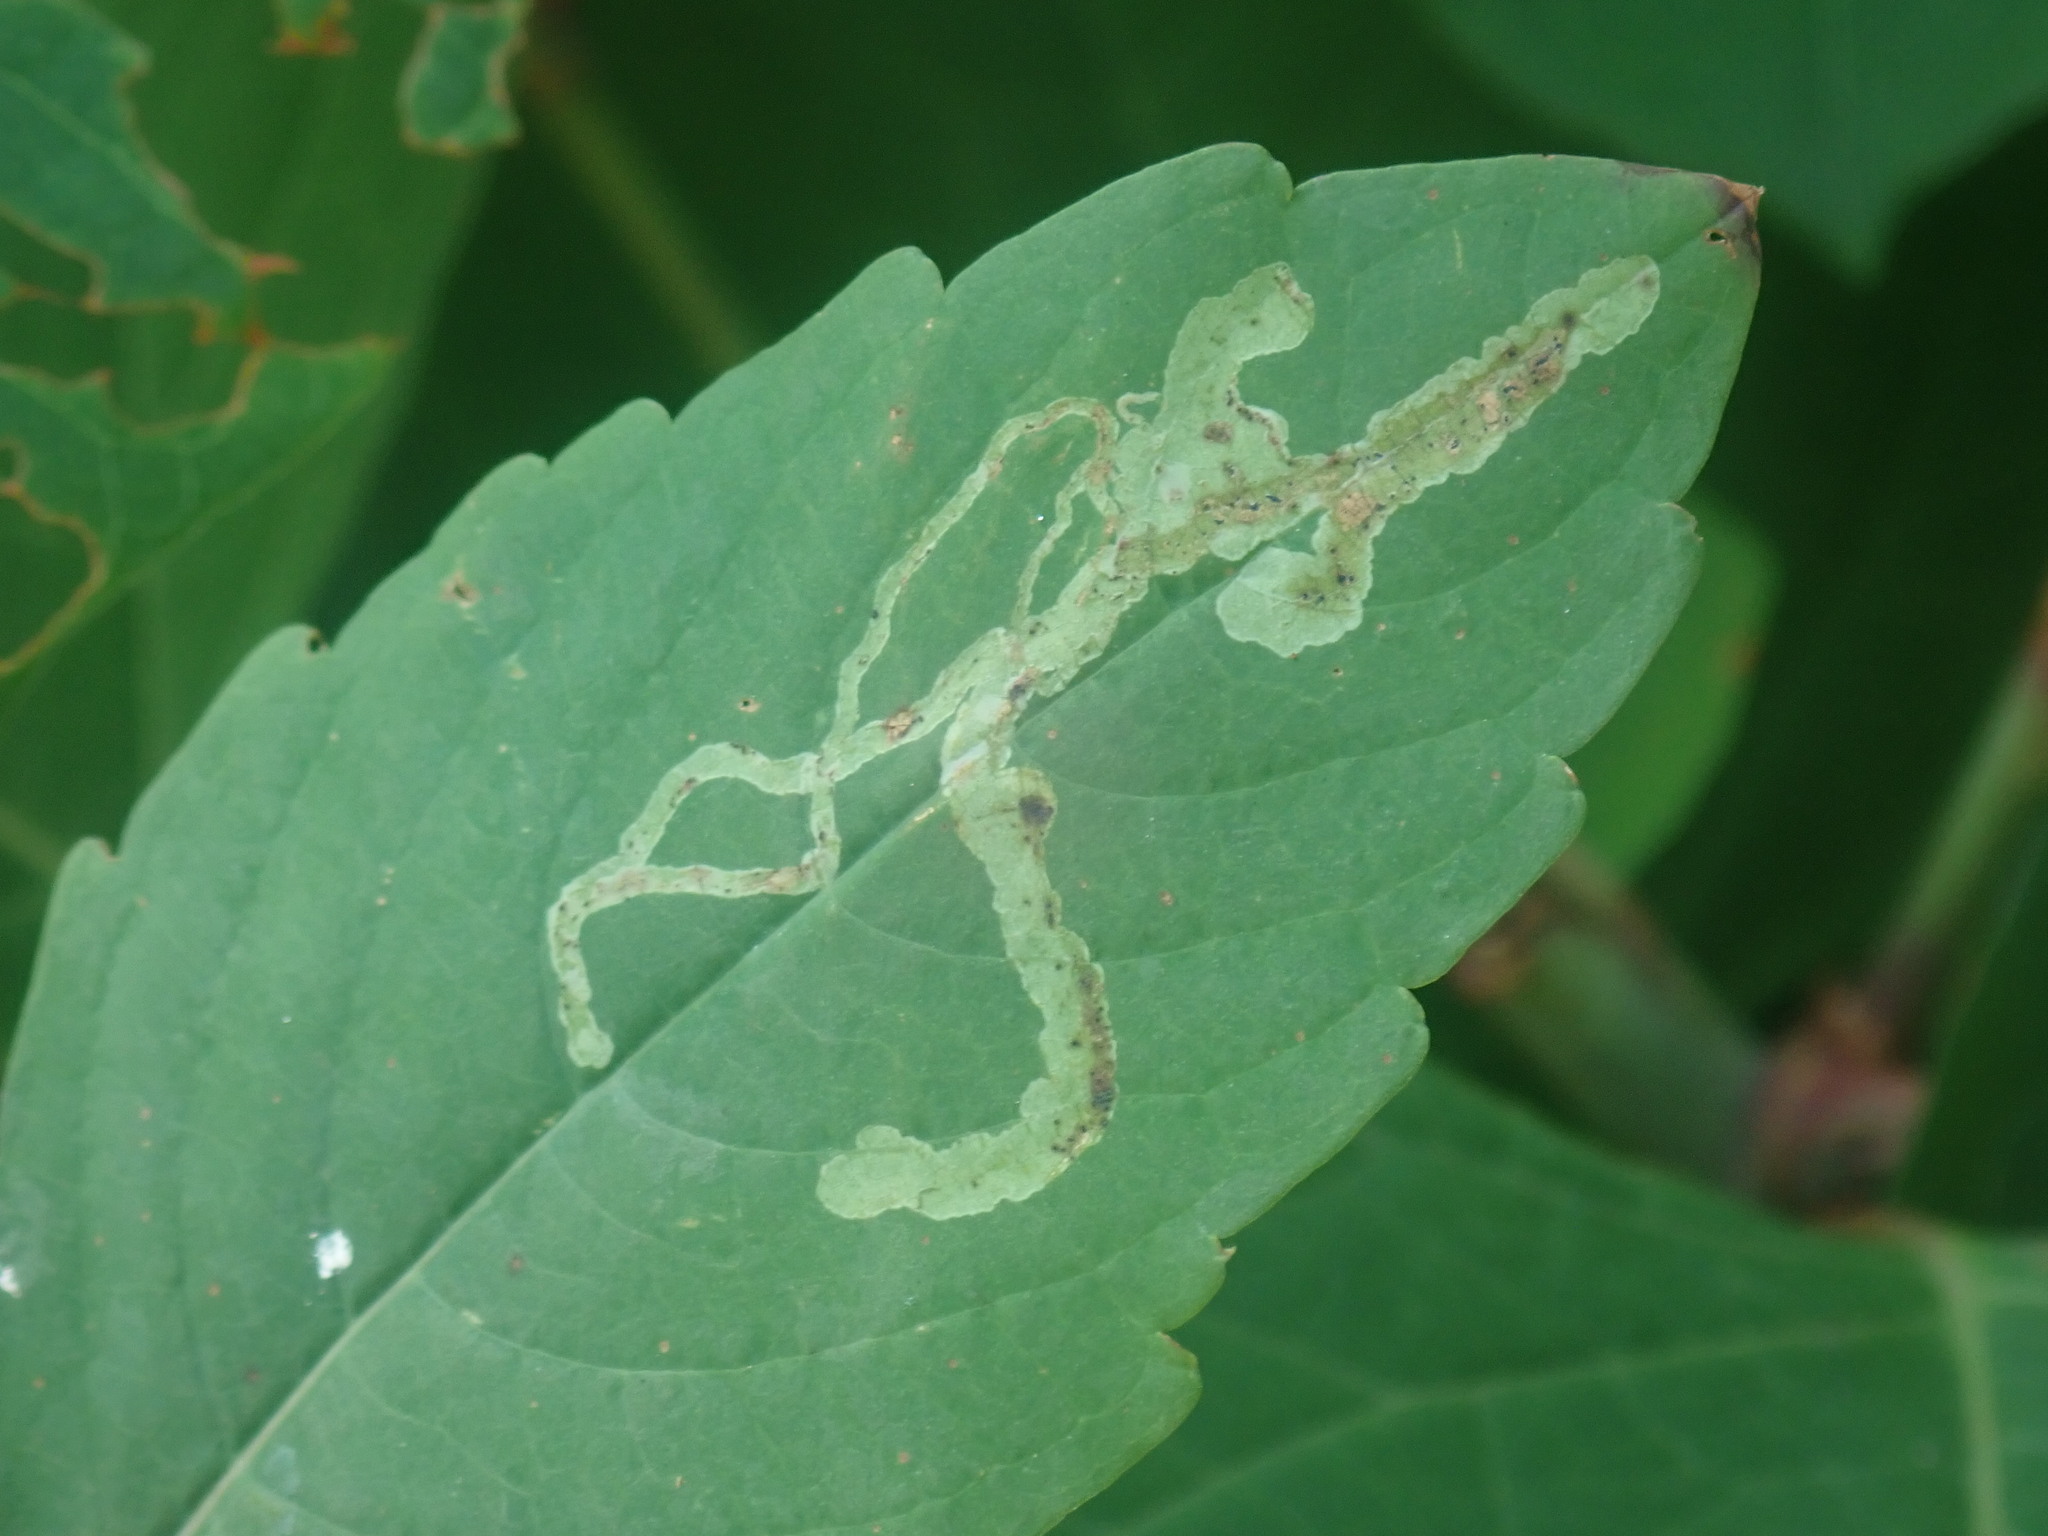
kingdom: Animalia
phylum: Arthropoda
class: Insecta
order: Diptera
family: Agromyzidae
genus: Phytoliriomyza
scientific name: Phytoliriomyza melampyga
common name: Jewelweed leaf-miner fly
